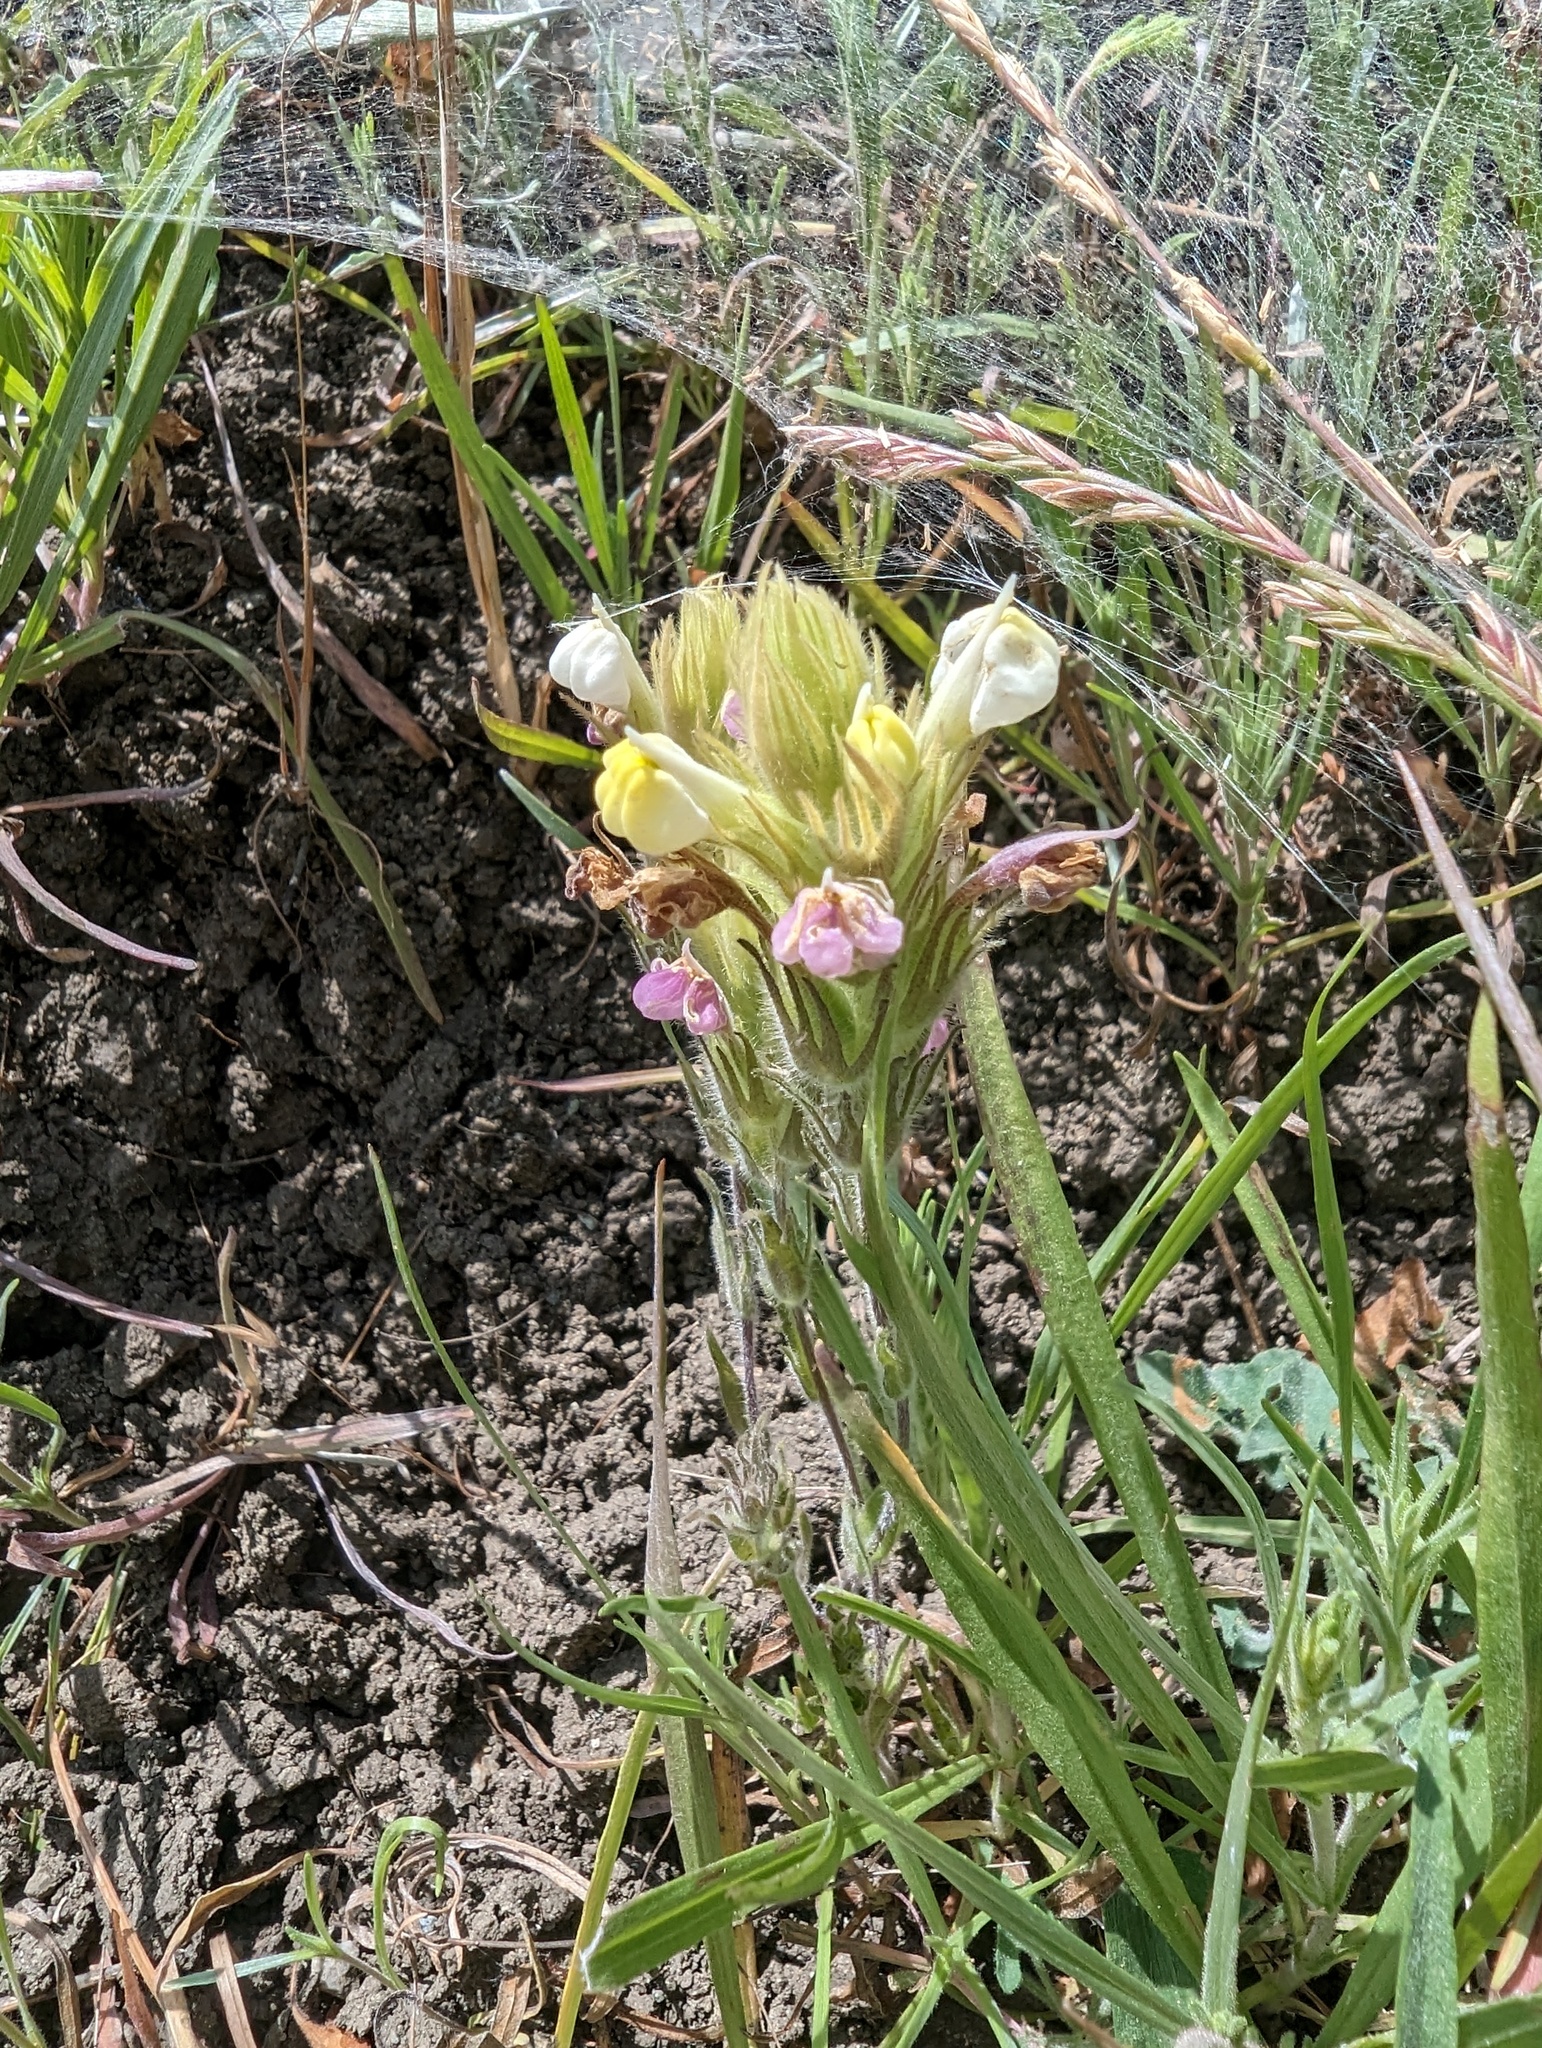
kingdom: Plantae
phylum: Tracheophyta
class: Magnoliopsida
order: Lamiales
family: Orobanchaceae
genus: Castilleja
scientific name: Castilleja rubicundula
